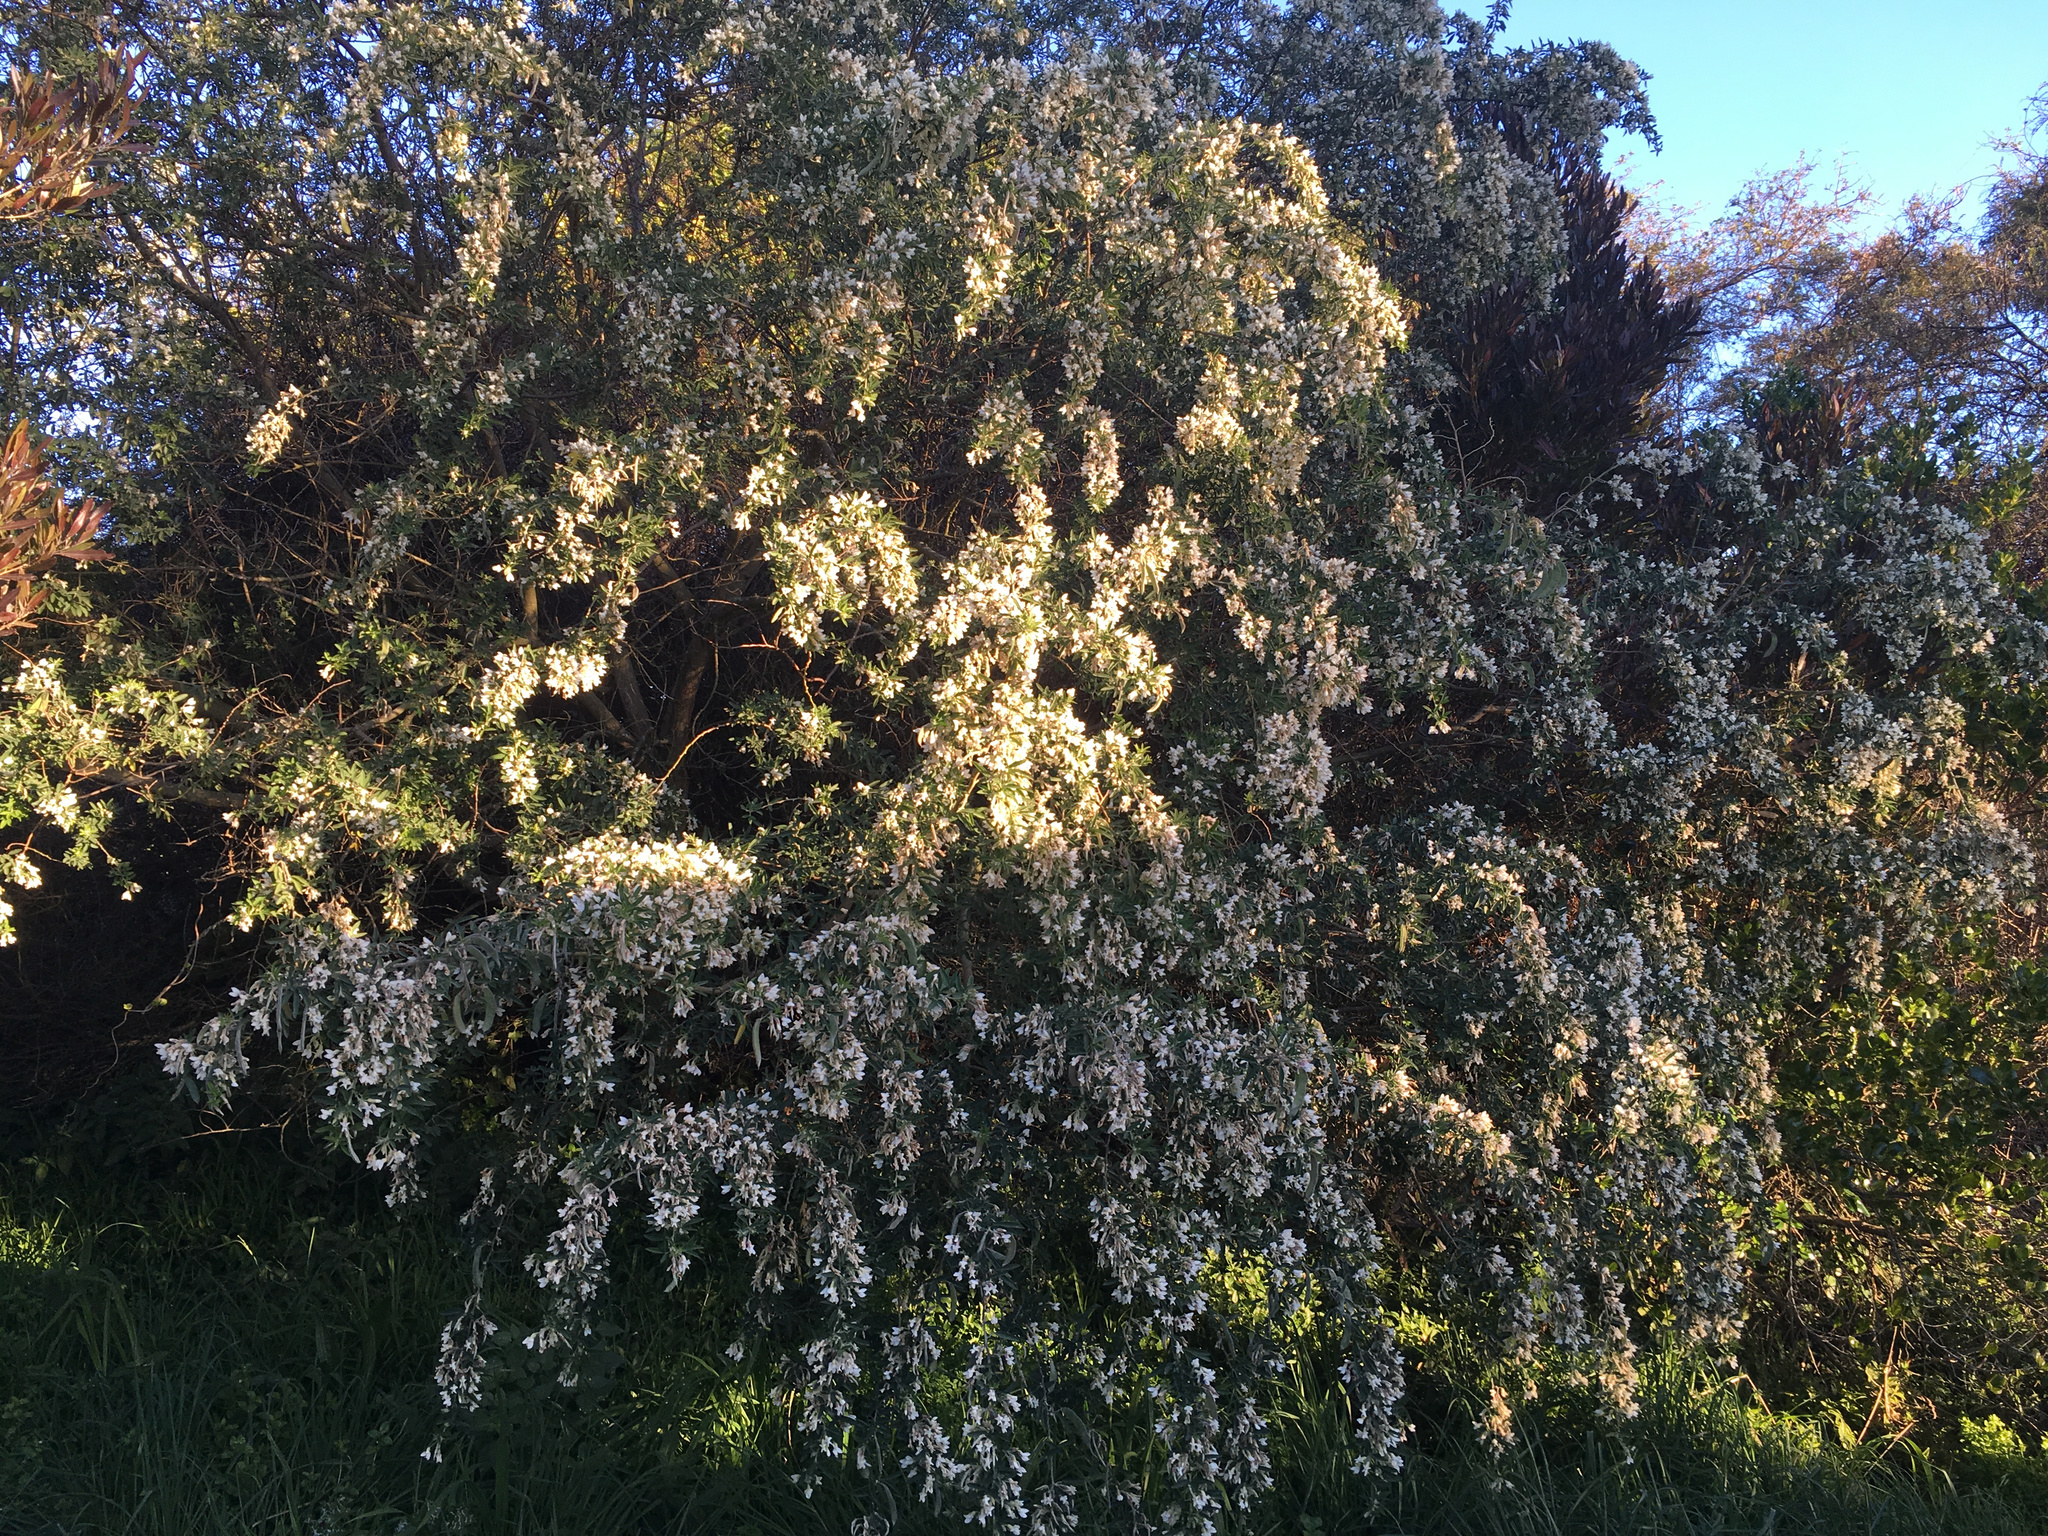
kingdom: Plantae
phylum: Tracheophyta
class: Magnoliopsida
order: Fabales
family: Fabaceae
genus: Chamaecytisus
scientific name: Chamaecytisus prolifer
